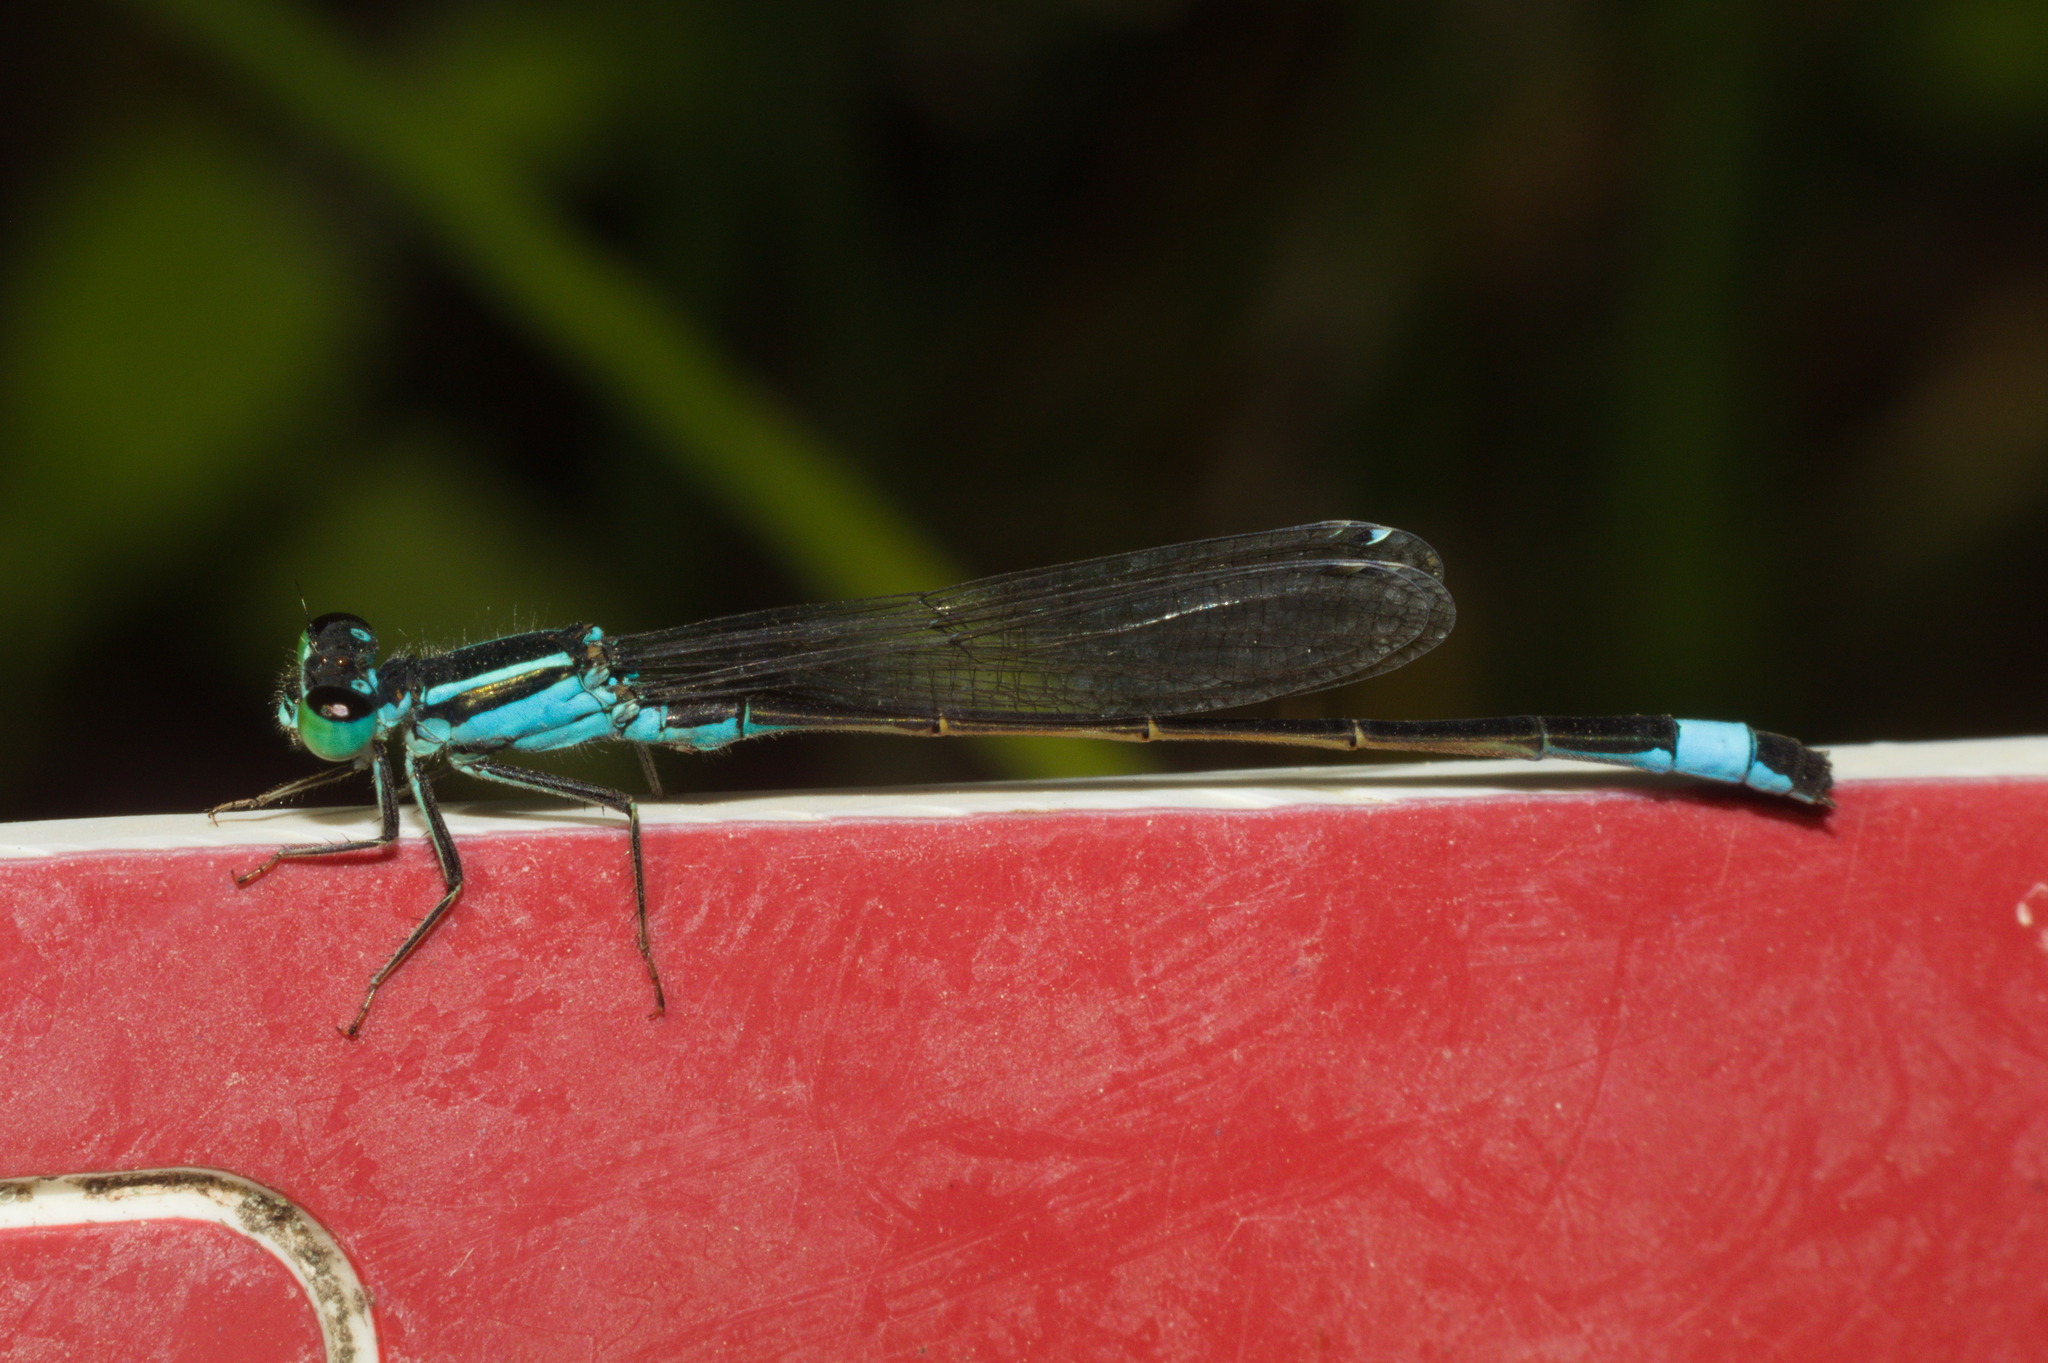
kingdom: Animalia
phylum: Arthropoda
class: Insecta
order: Odonata
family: Coenagrionidae
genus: Ischnura
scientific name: Ischnura elegans
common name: Blue-tailed damselfly
